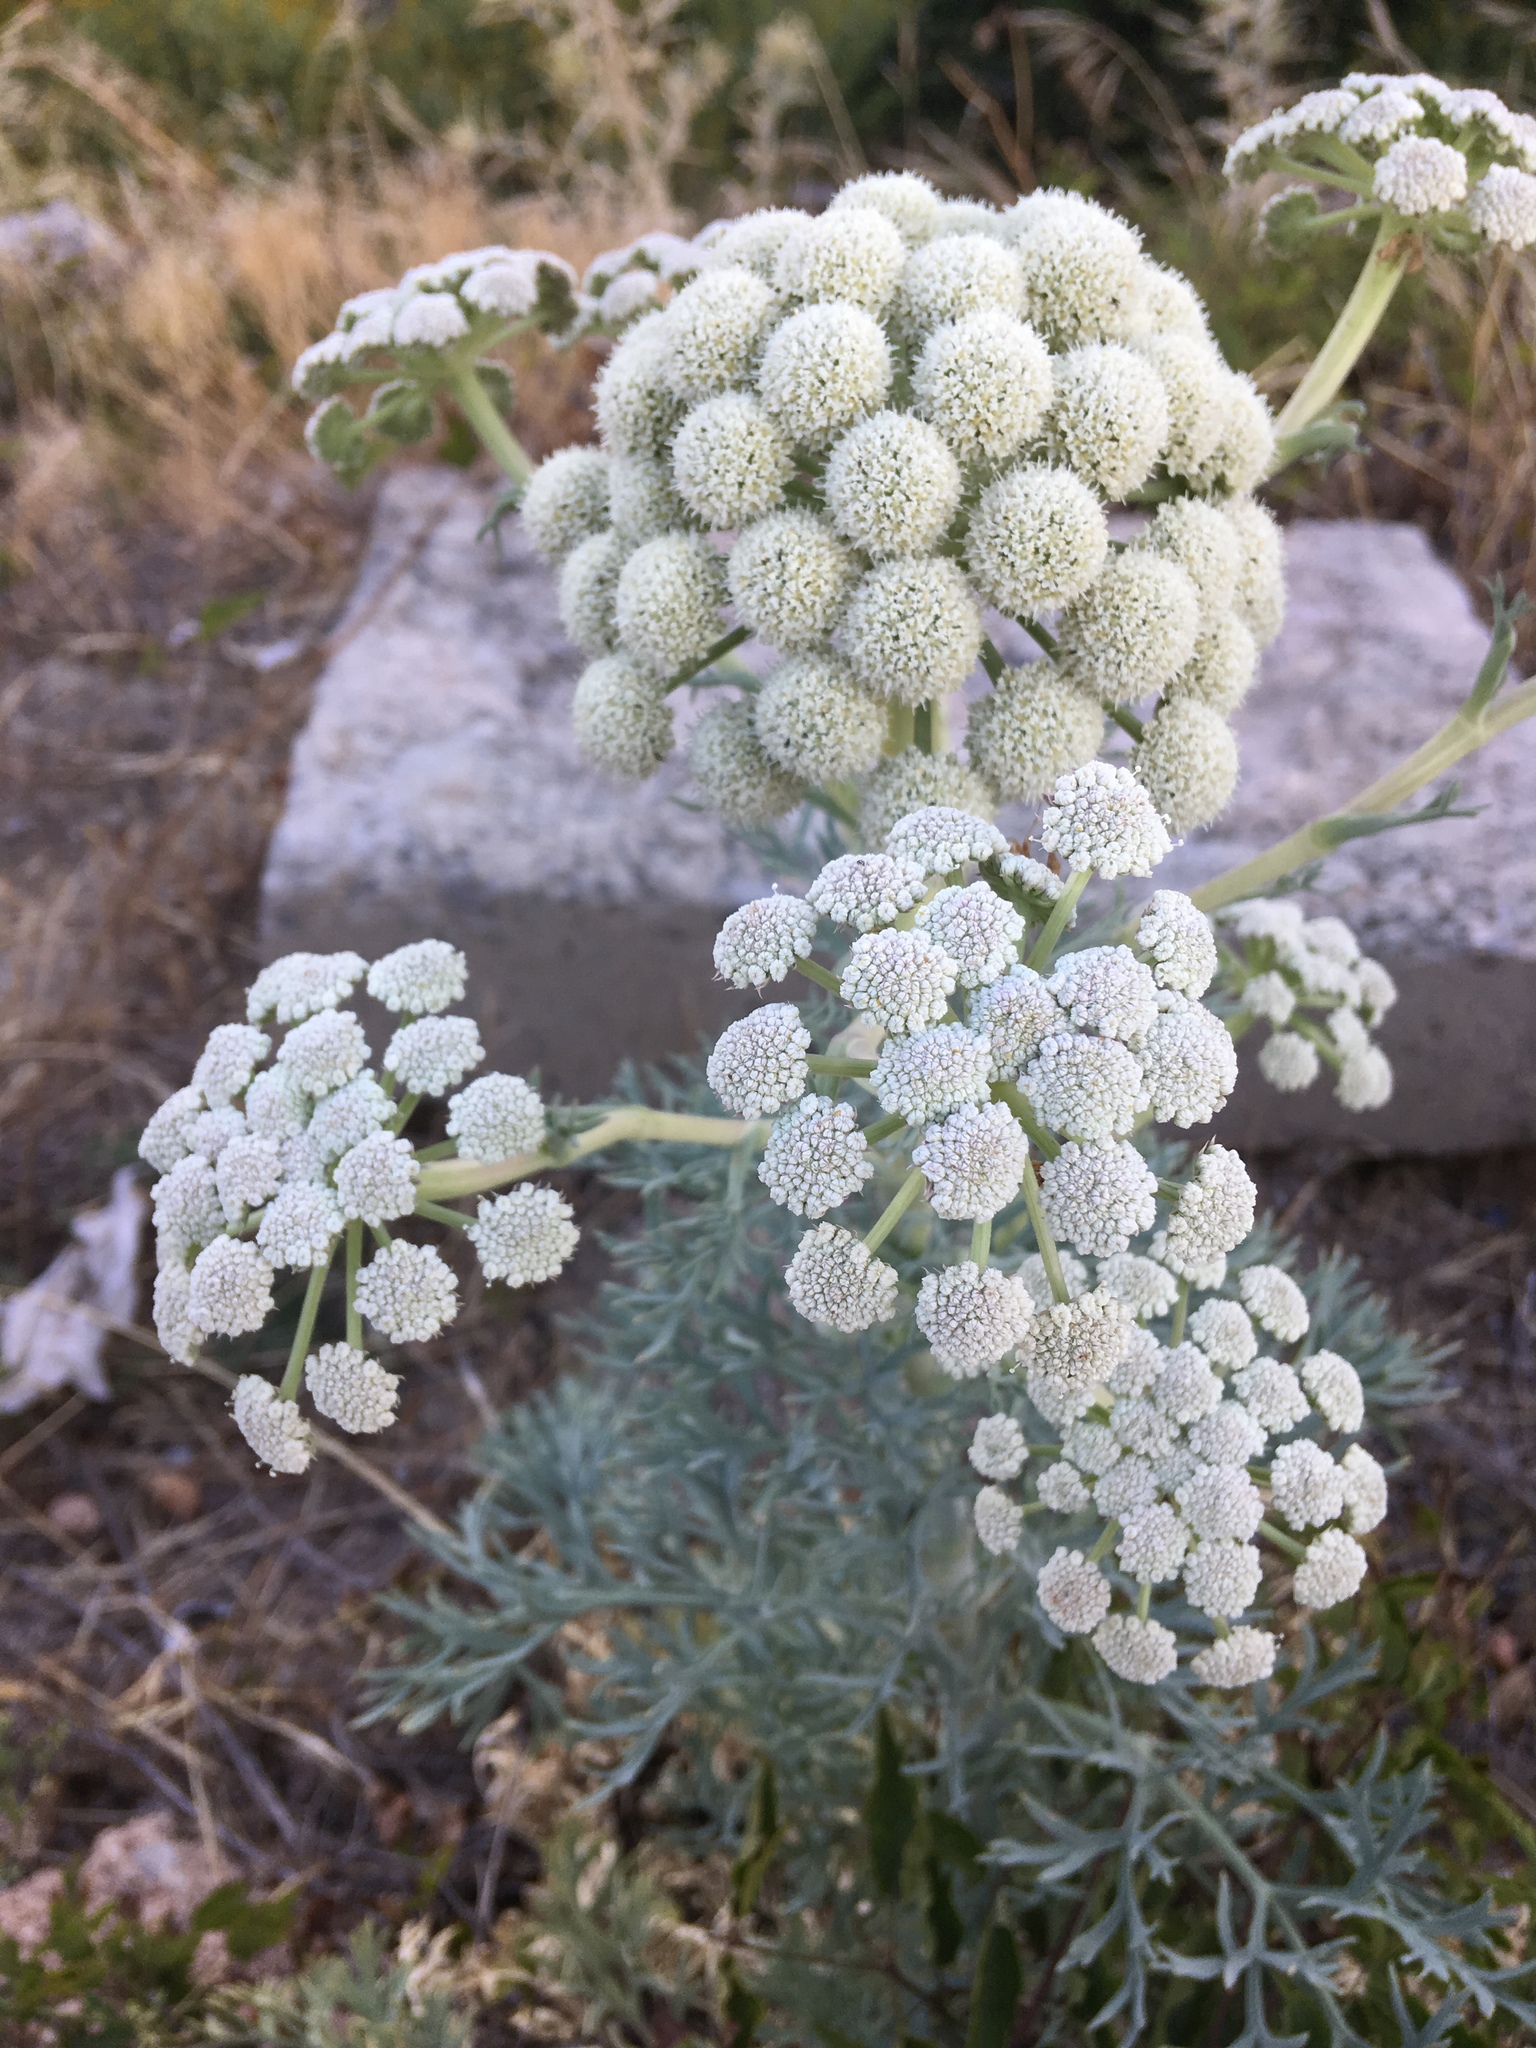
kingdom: Plantae
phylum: Tracheophyta
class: Magnoliopsida
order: Apiales
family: Apiaceae
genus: Seseli
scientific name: Seseli gummiferum
